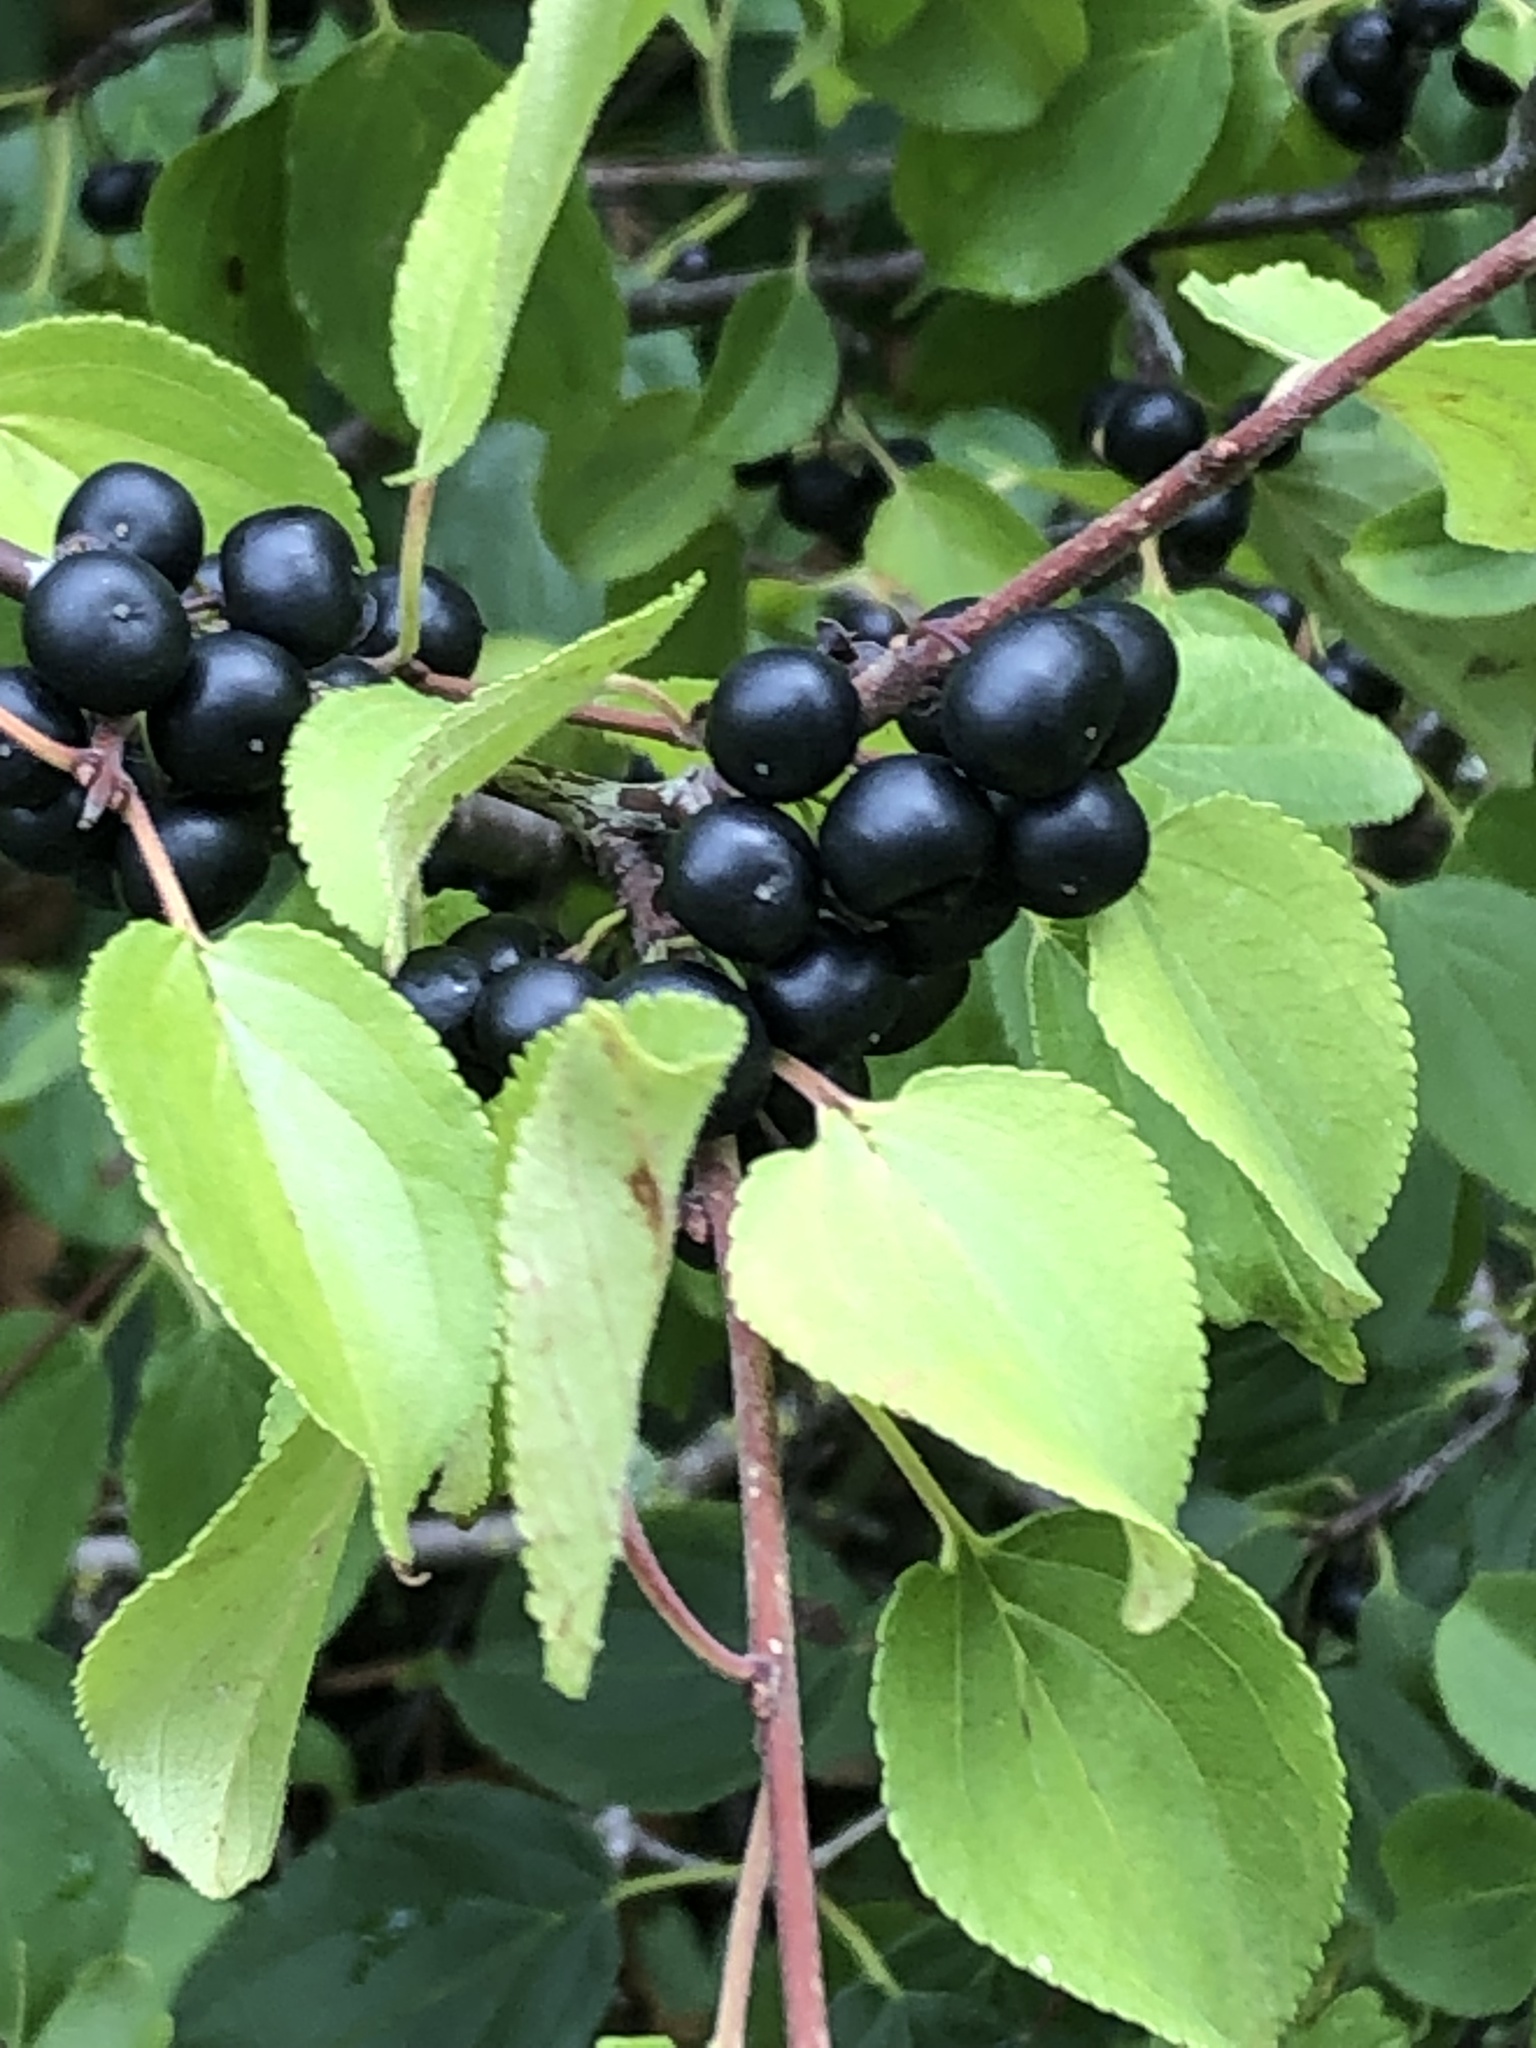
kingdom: Plantae
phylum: Tracheophyta
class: Magnoliopsida
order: Rosales
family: Rhamnaceae
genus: Rhamnus
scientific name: Rhamnus cathartica
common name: Common buckthorn
